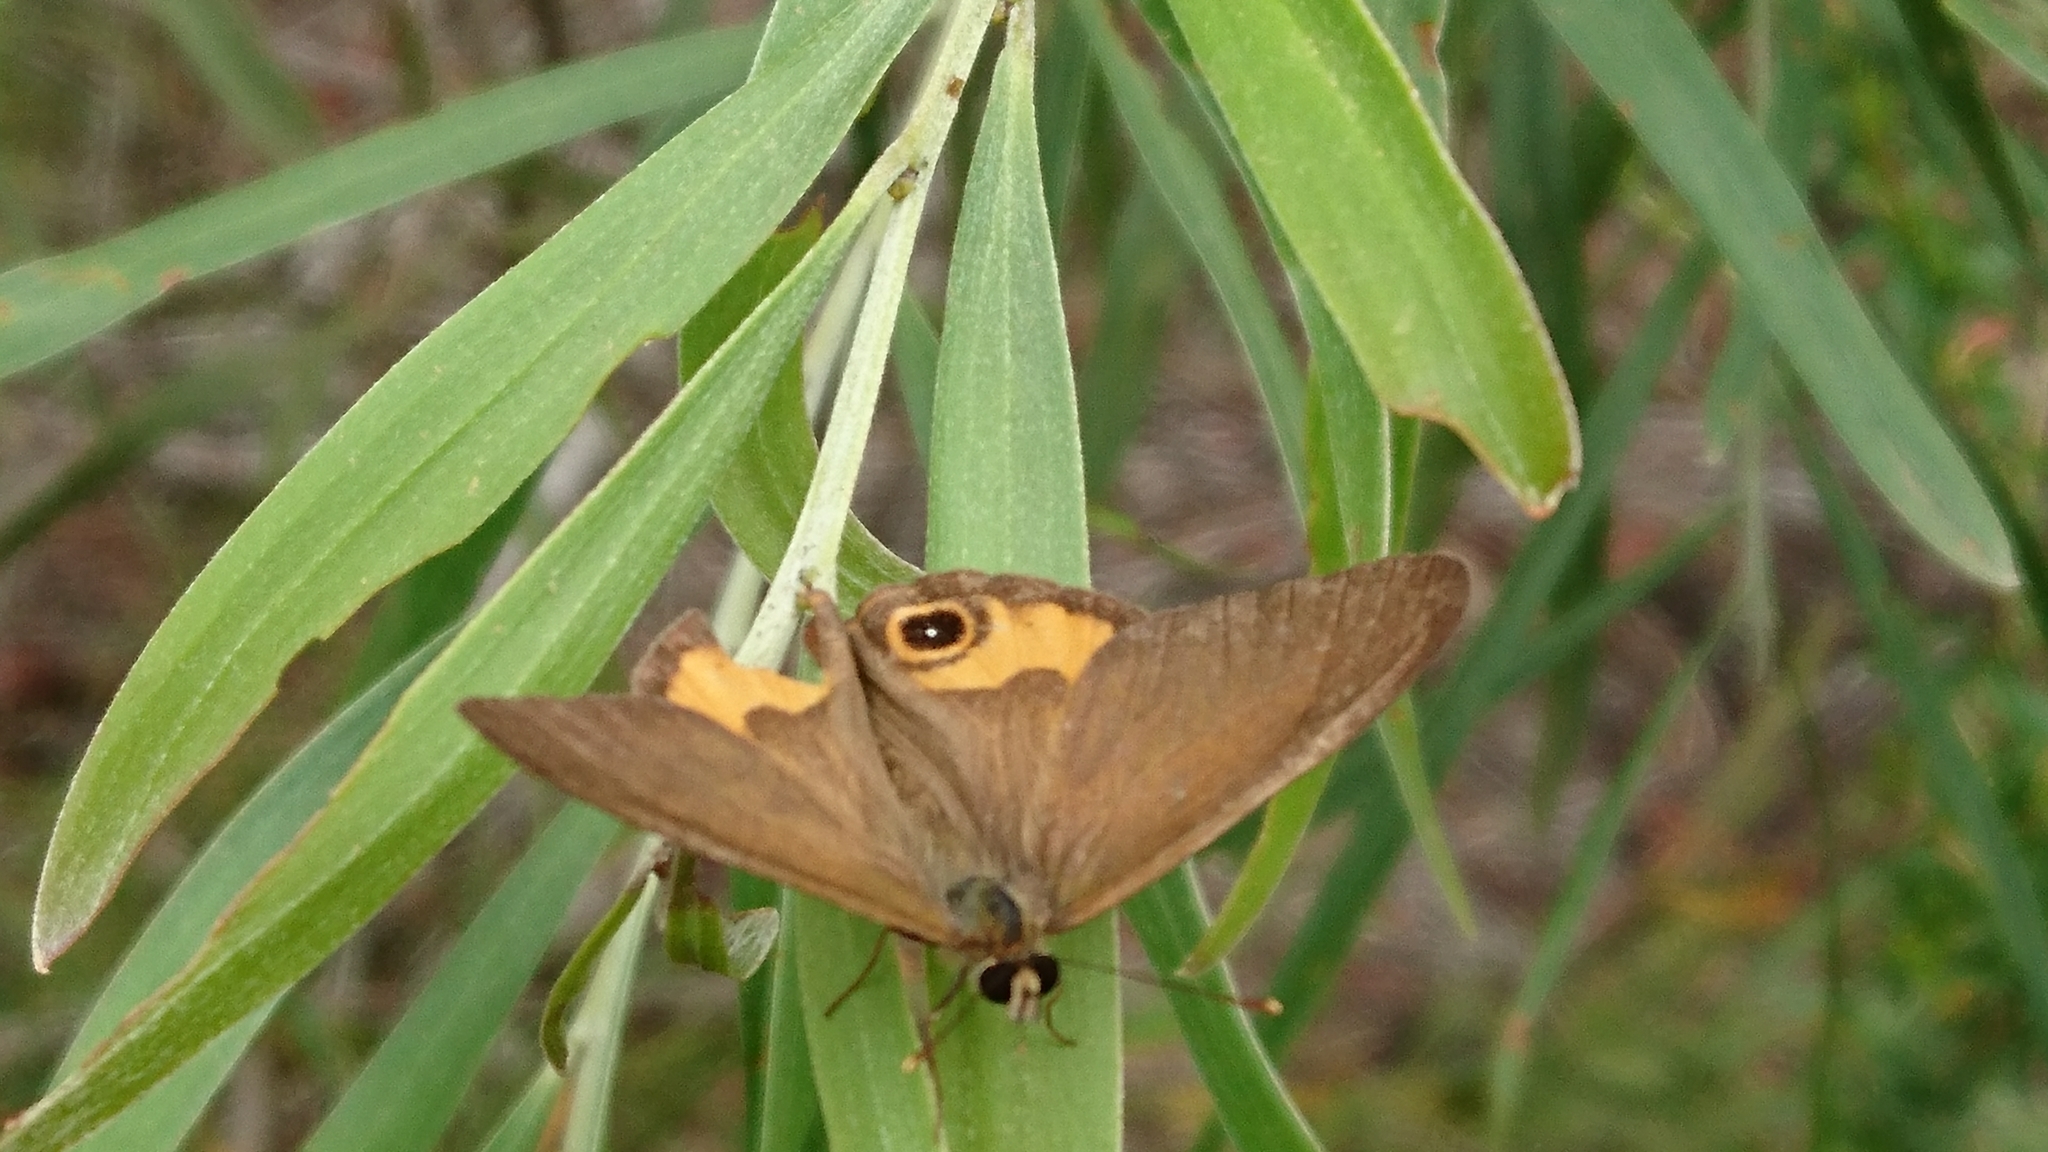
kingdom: Animalia
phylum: Arthropoda
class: Insecta
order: Lepidoptera
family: Nymphalidae
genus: Hypocysta
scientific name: Hypocysta metirius
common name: Brown ringlet
